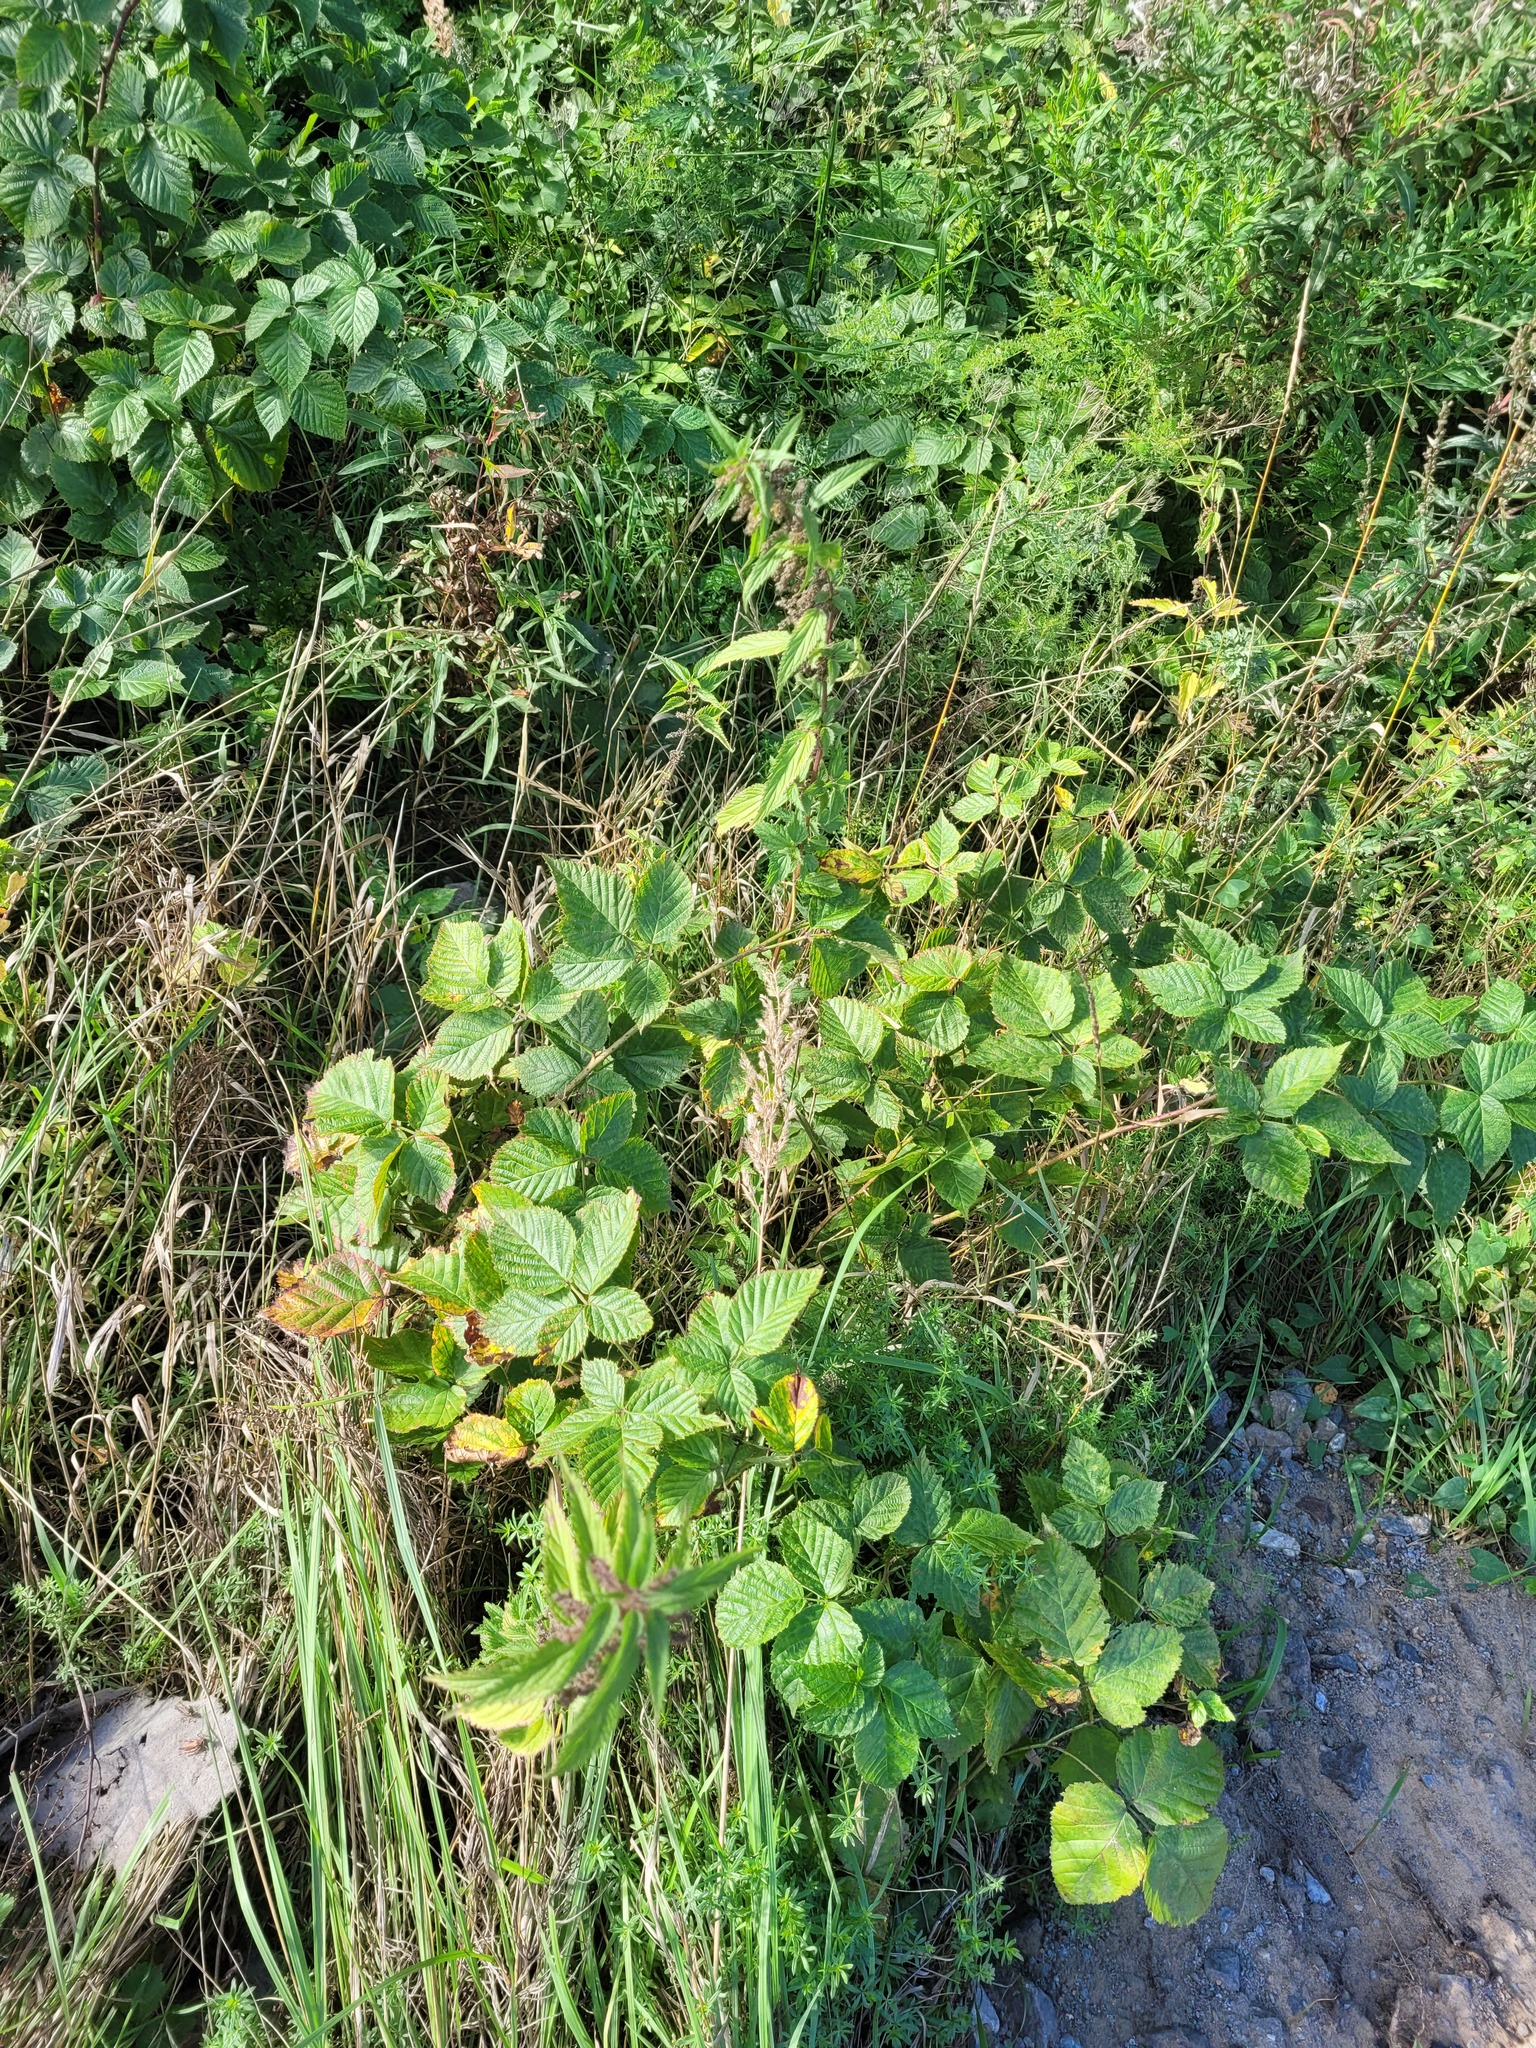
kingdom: Plantae
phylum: Tracheophyta
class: Magnoliopsida
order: Rosales
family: Rosaceae
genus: Rubus
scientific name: Rubus polonicus
